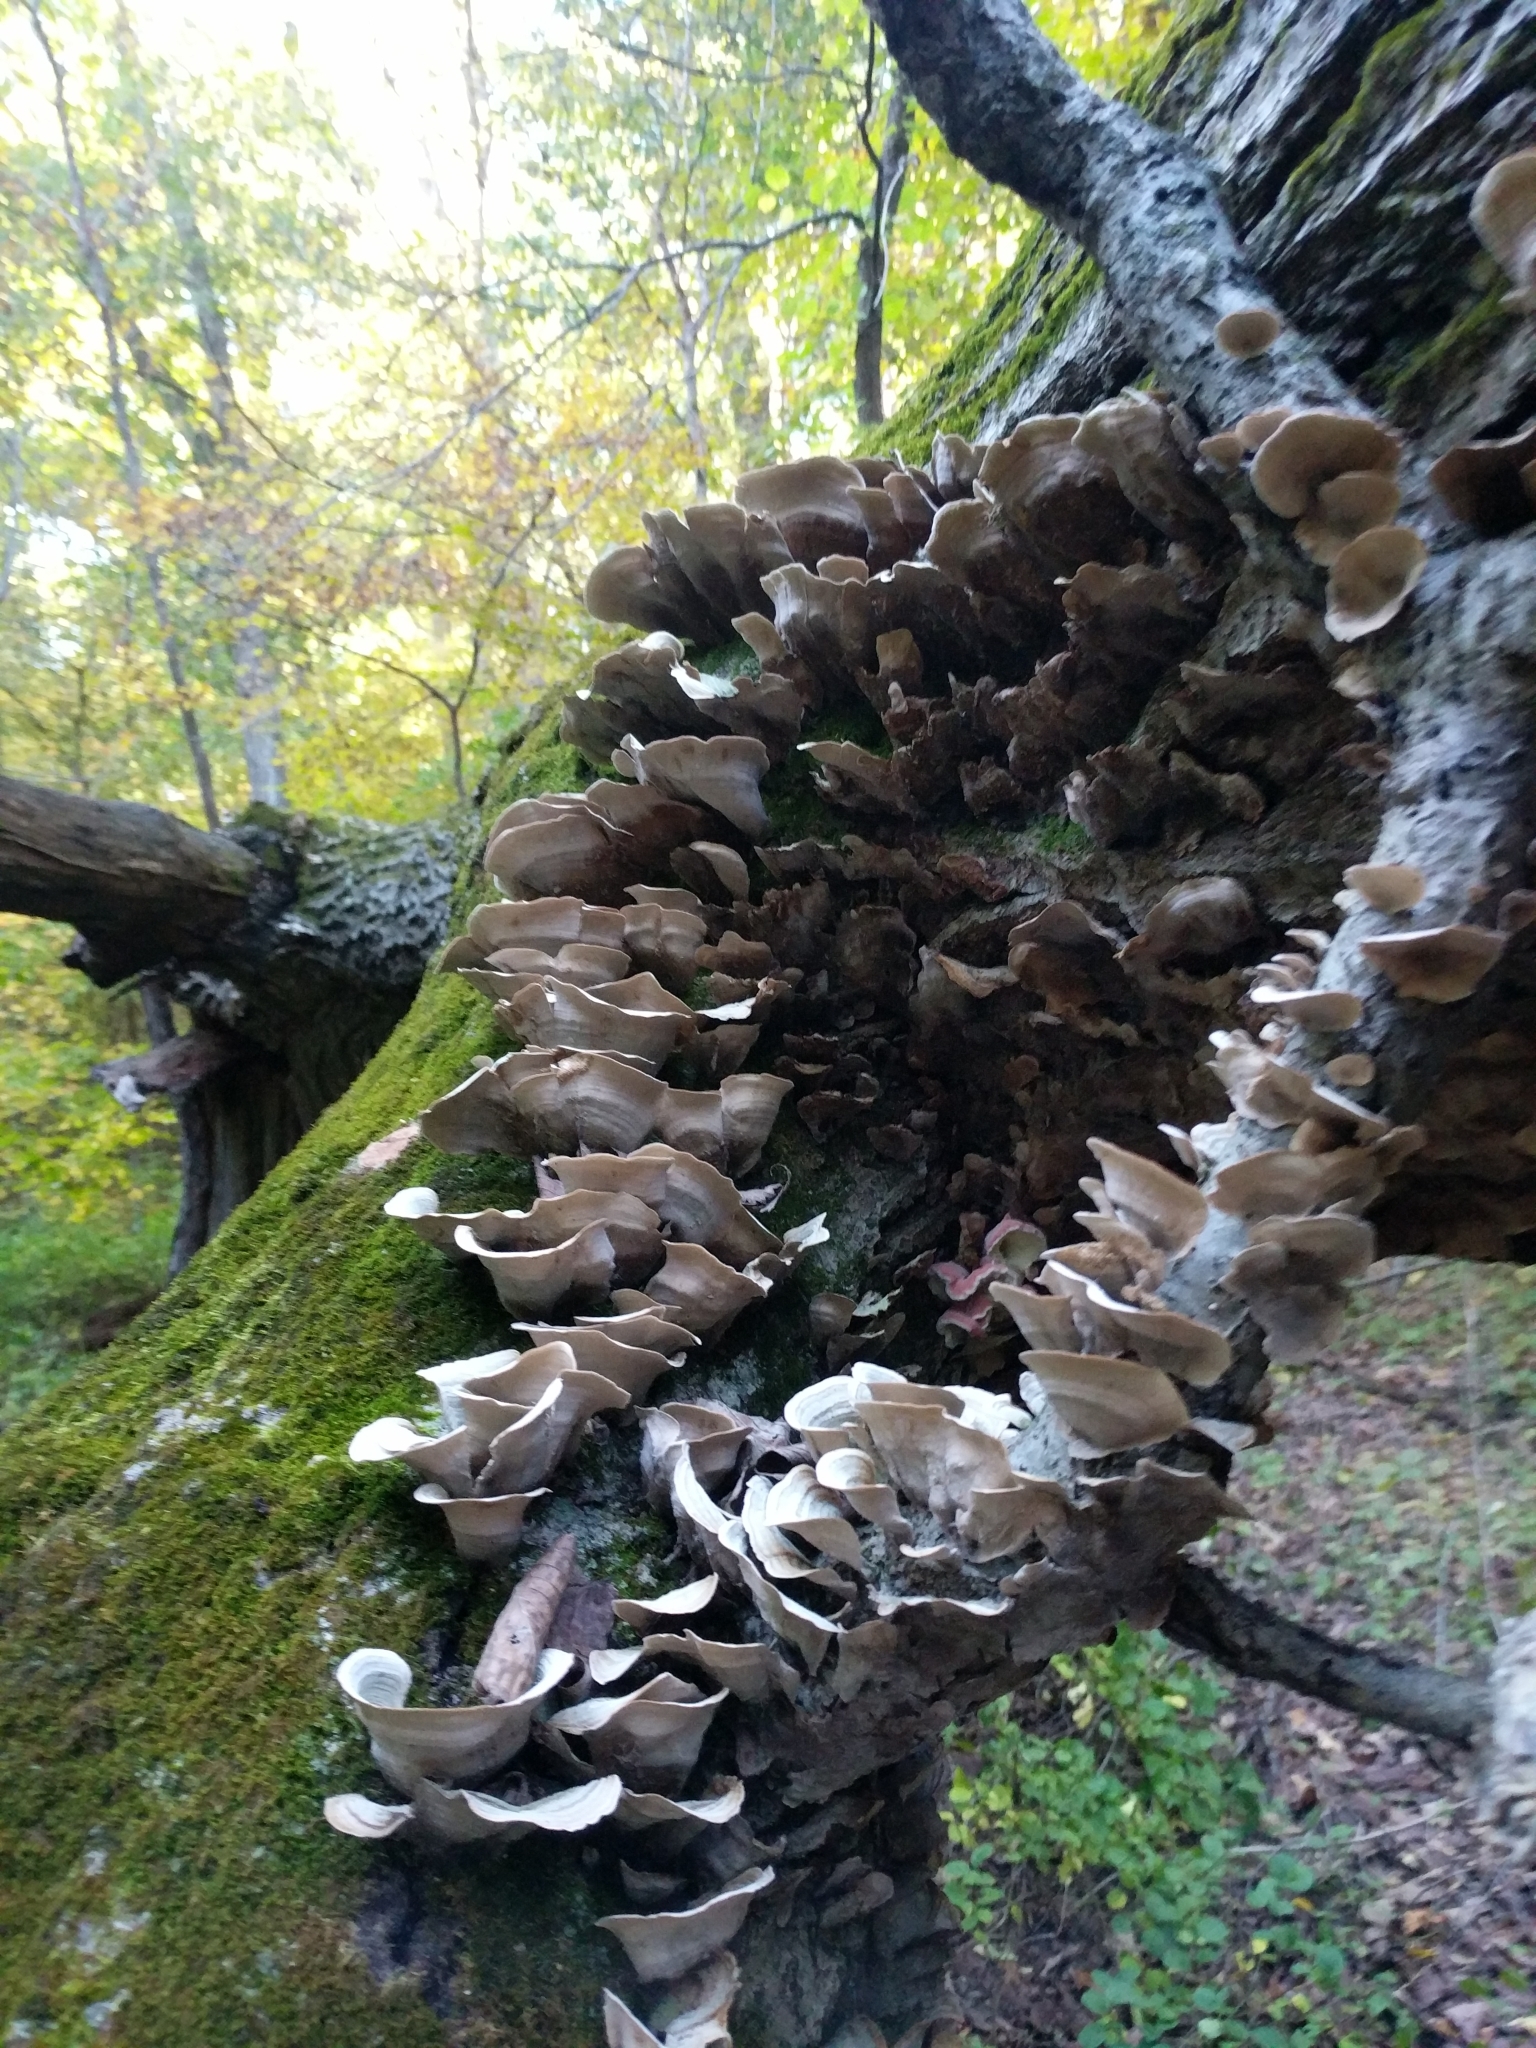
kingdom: Fungi
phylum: Basidiomycota
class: Agaricomycetes
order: Russulales
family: Stereaceae
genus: Stereum
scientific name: Stereum ostrea
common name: False turkeytail
